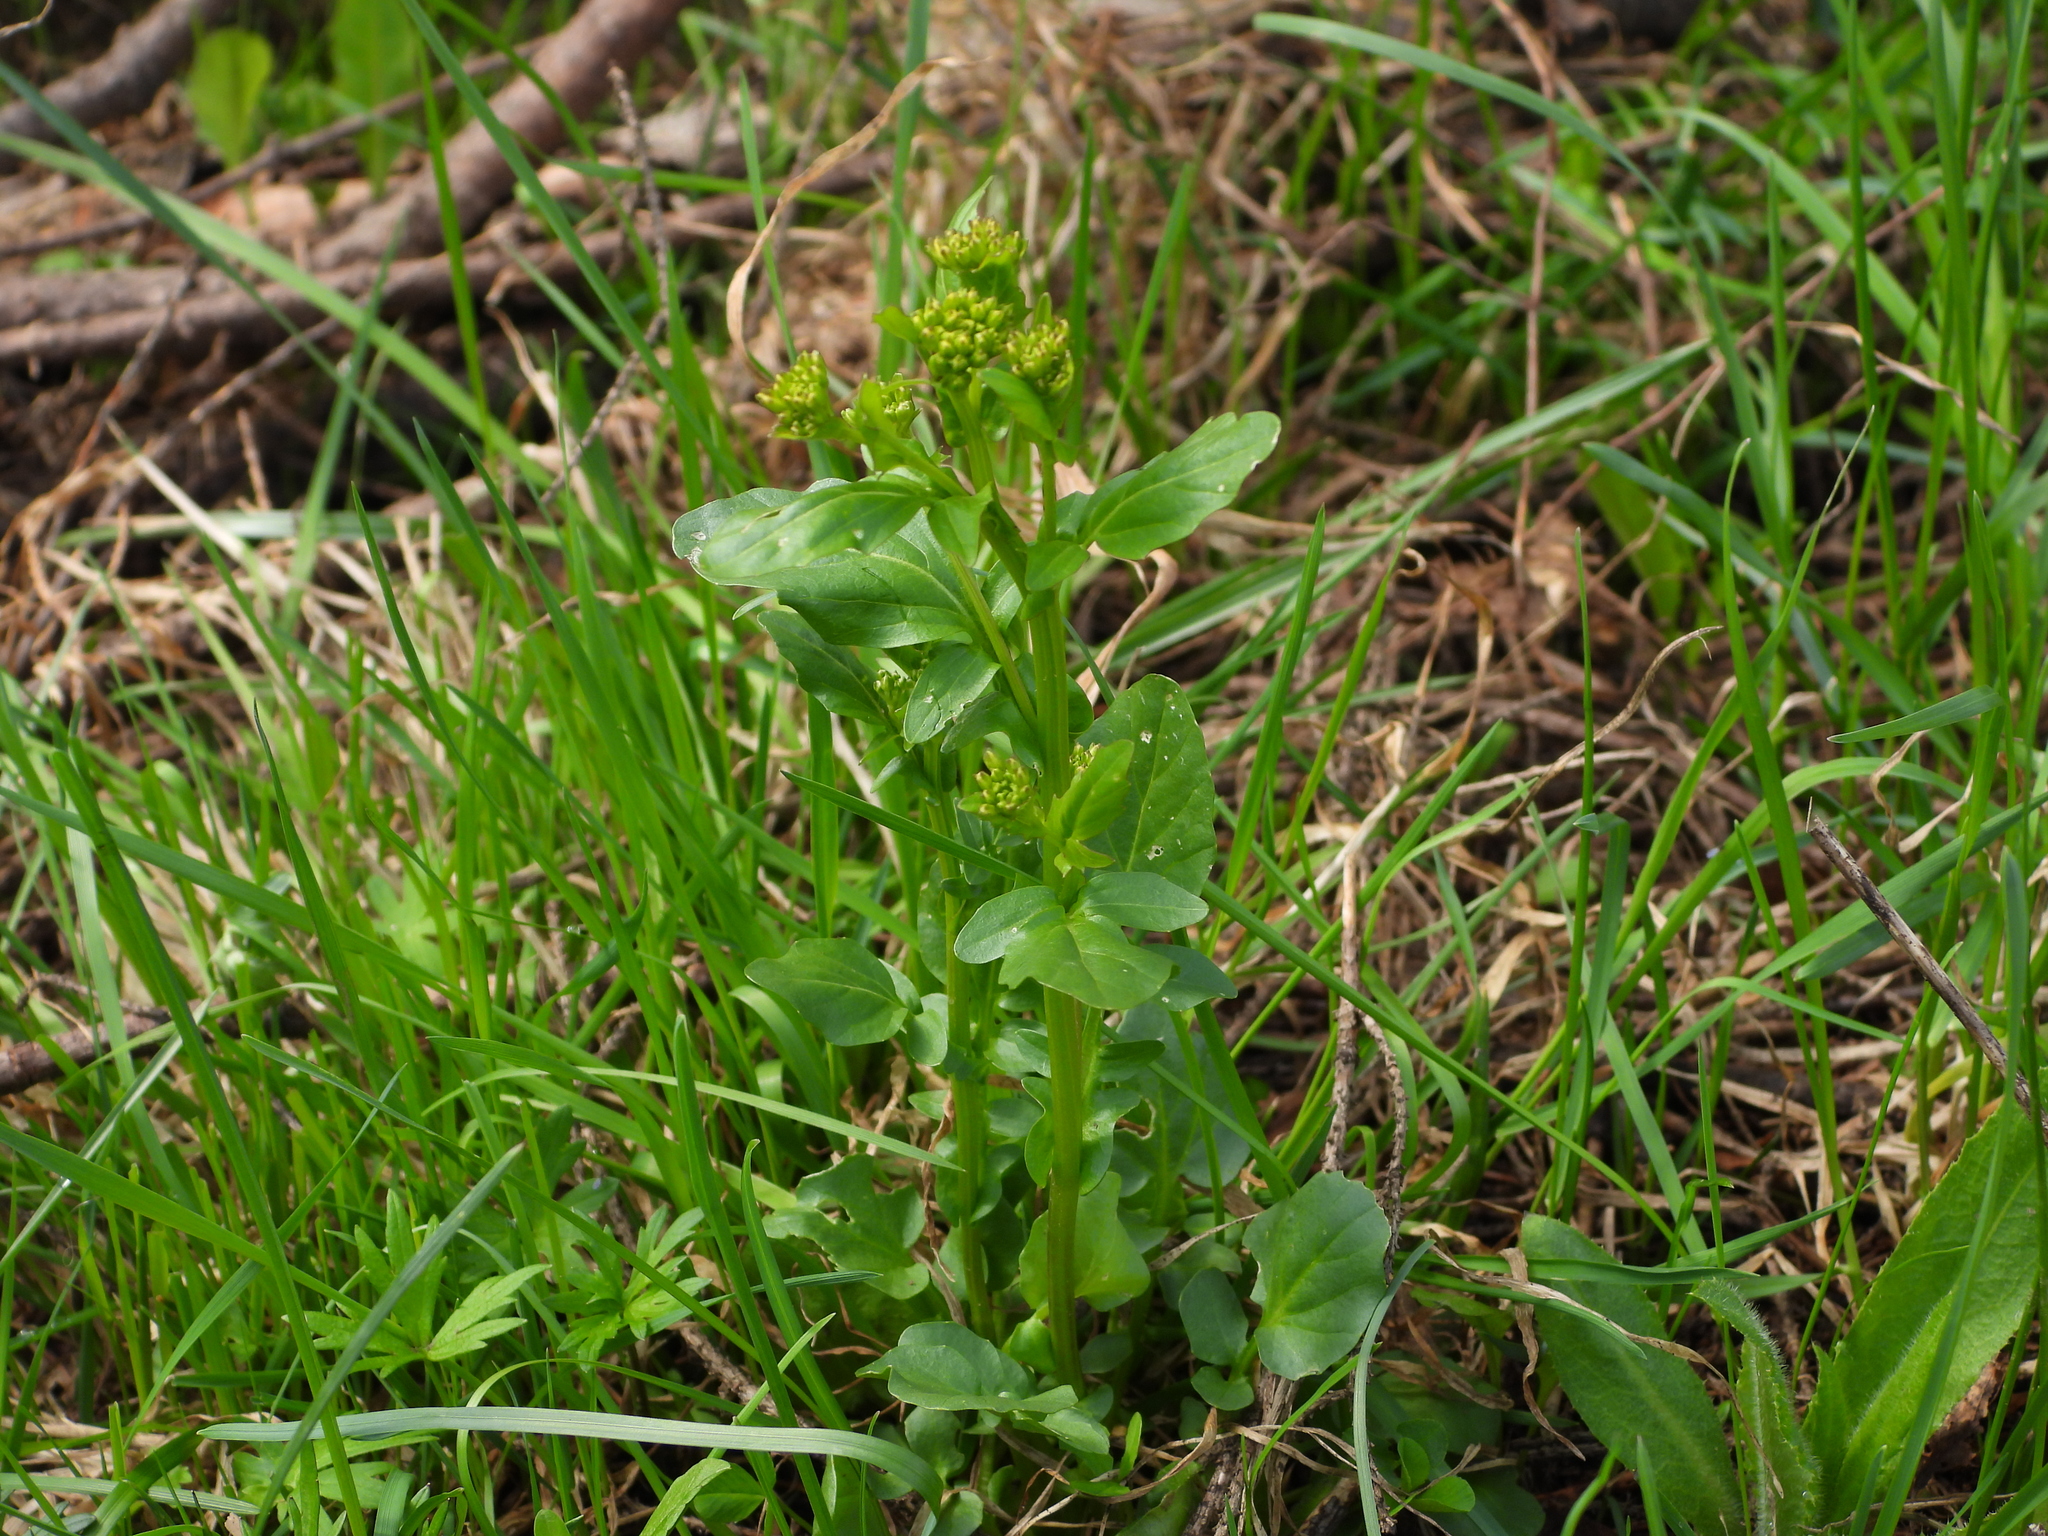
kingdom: Plantae
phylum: Tracheophyta
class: Magnoliopsida
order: Brassicales
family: Brassicaceae
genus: Barbarea
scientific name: Barbarea vulgaris
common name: Cressy-greens
